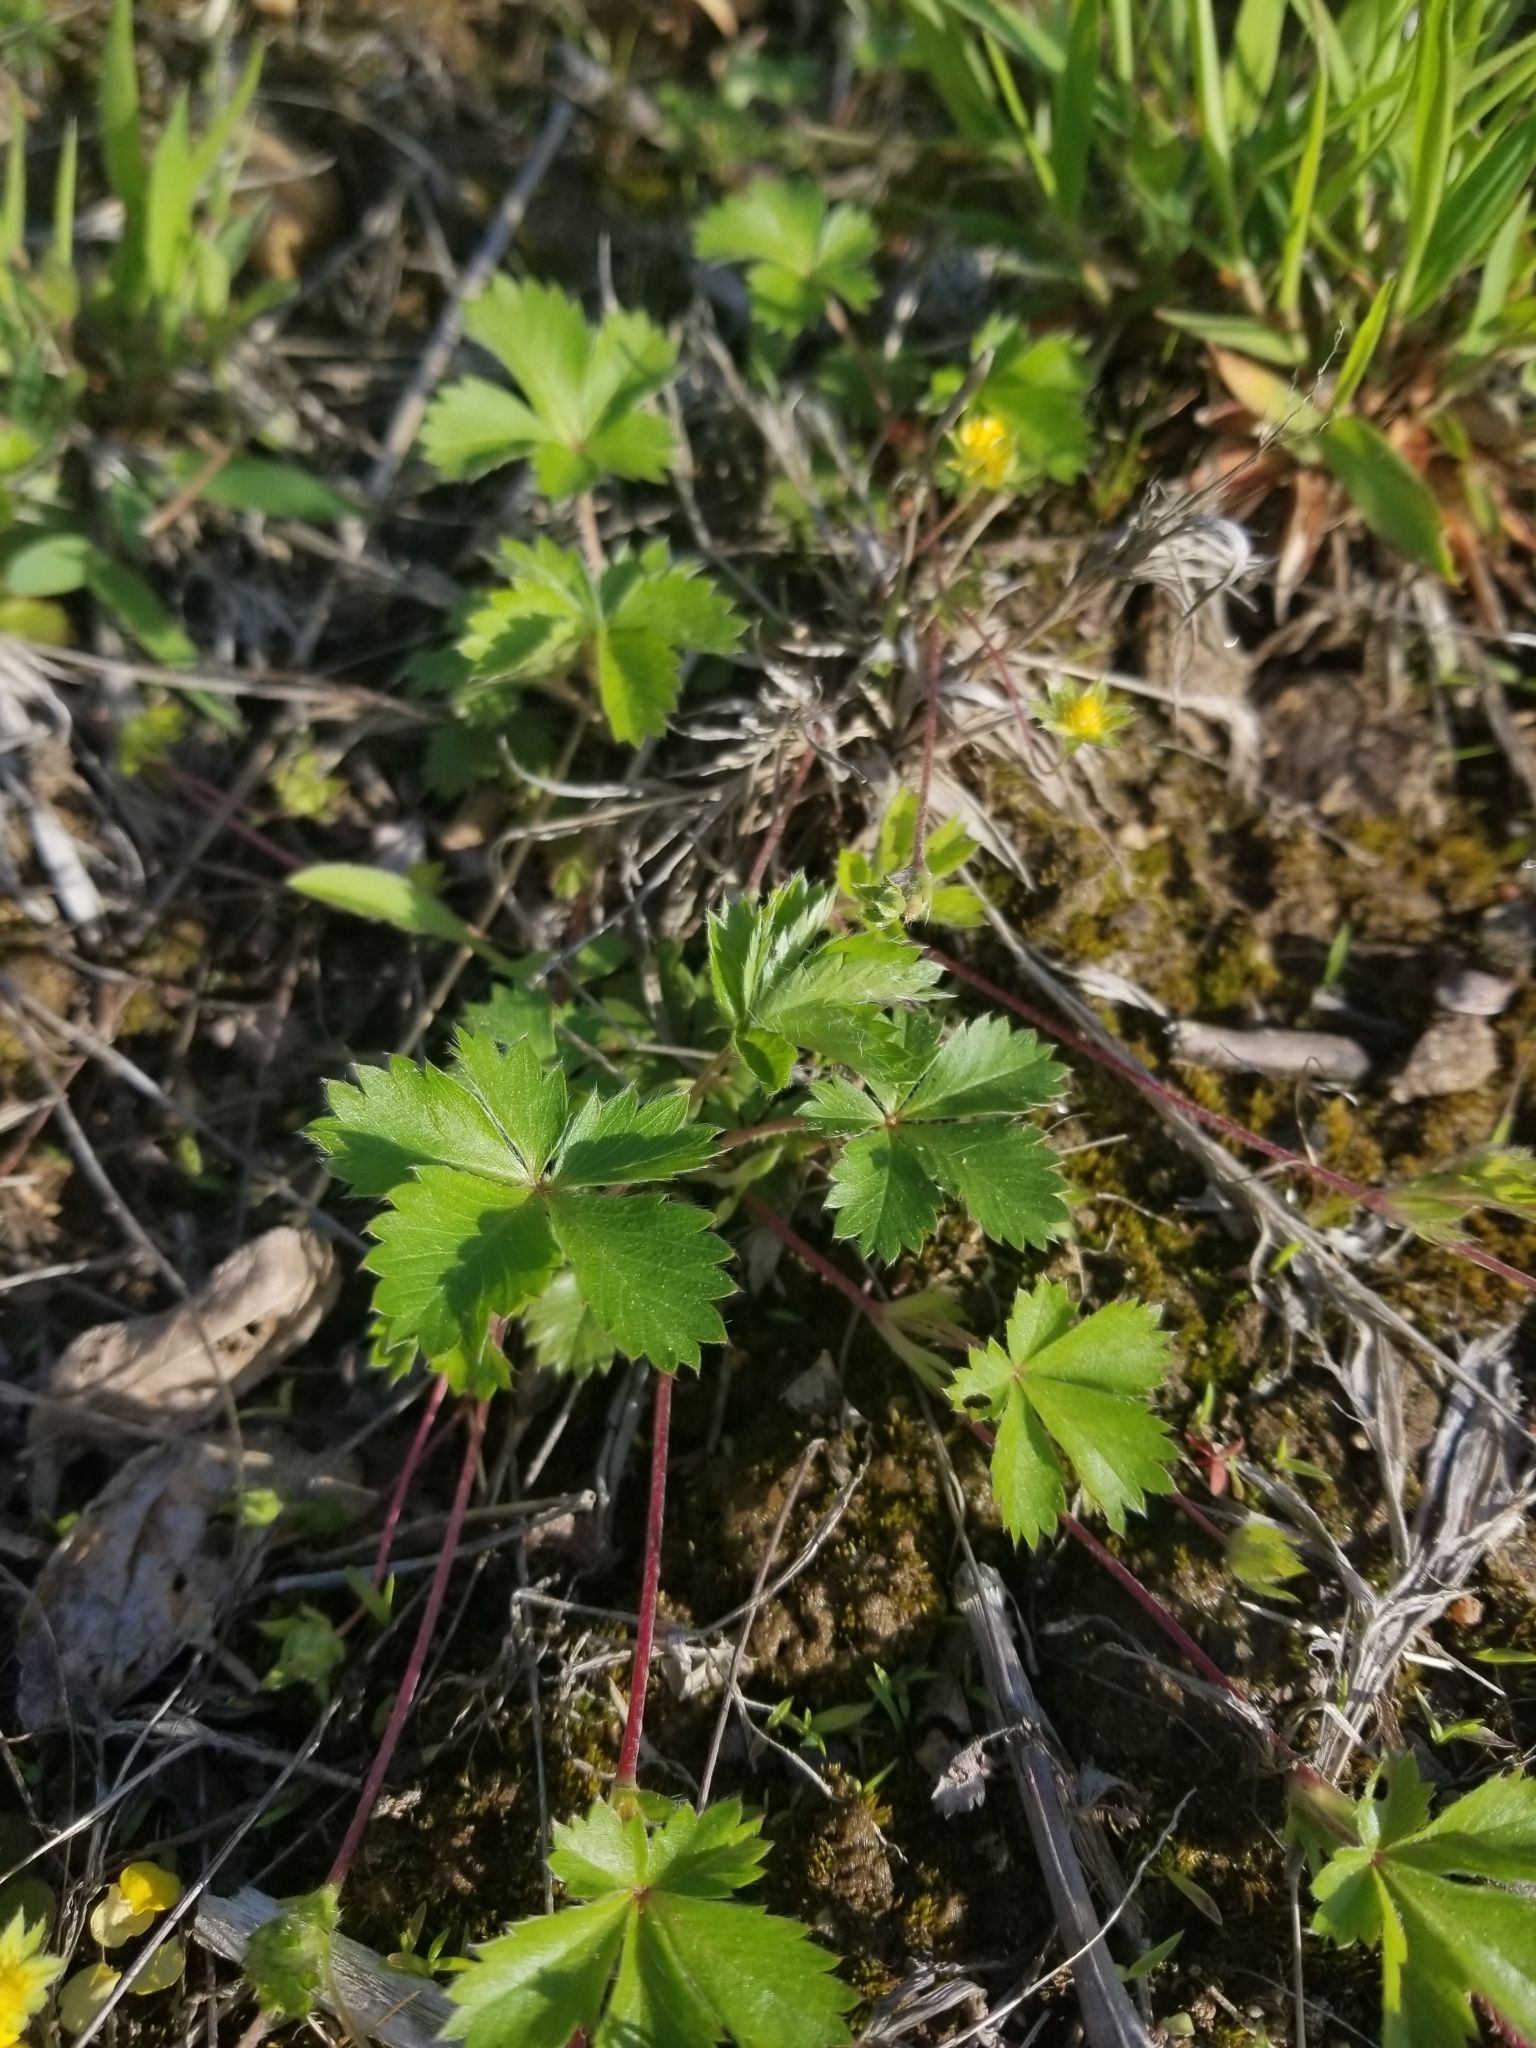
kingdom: Plantae
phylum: Tracheophyta
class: Magnoliopsida
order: Rosales
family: Rosaceae
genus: Potentilla
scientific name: Potentilla canadensis
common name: Canada cinquefoil
